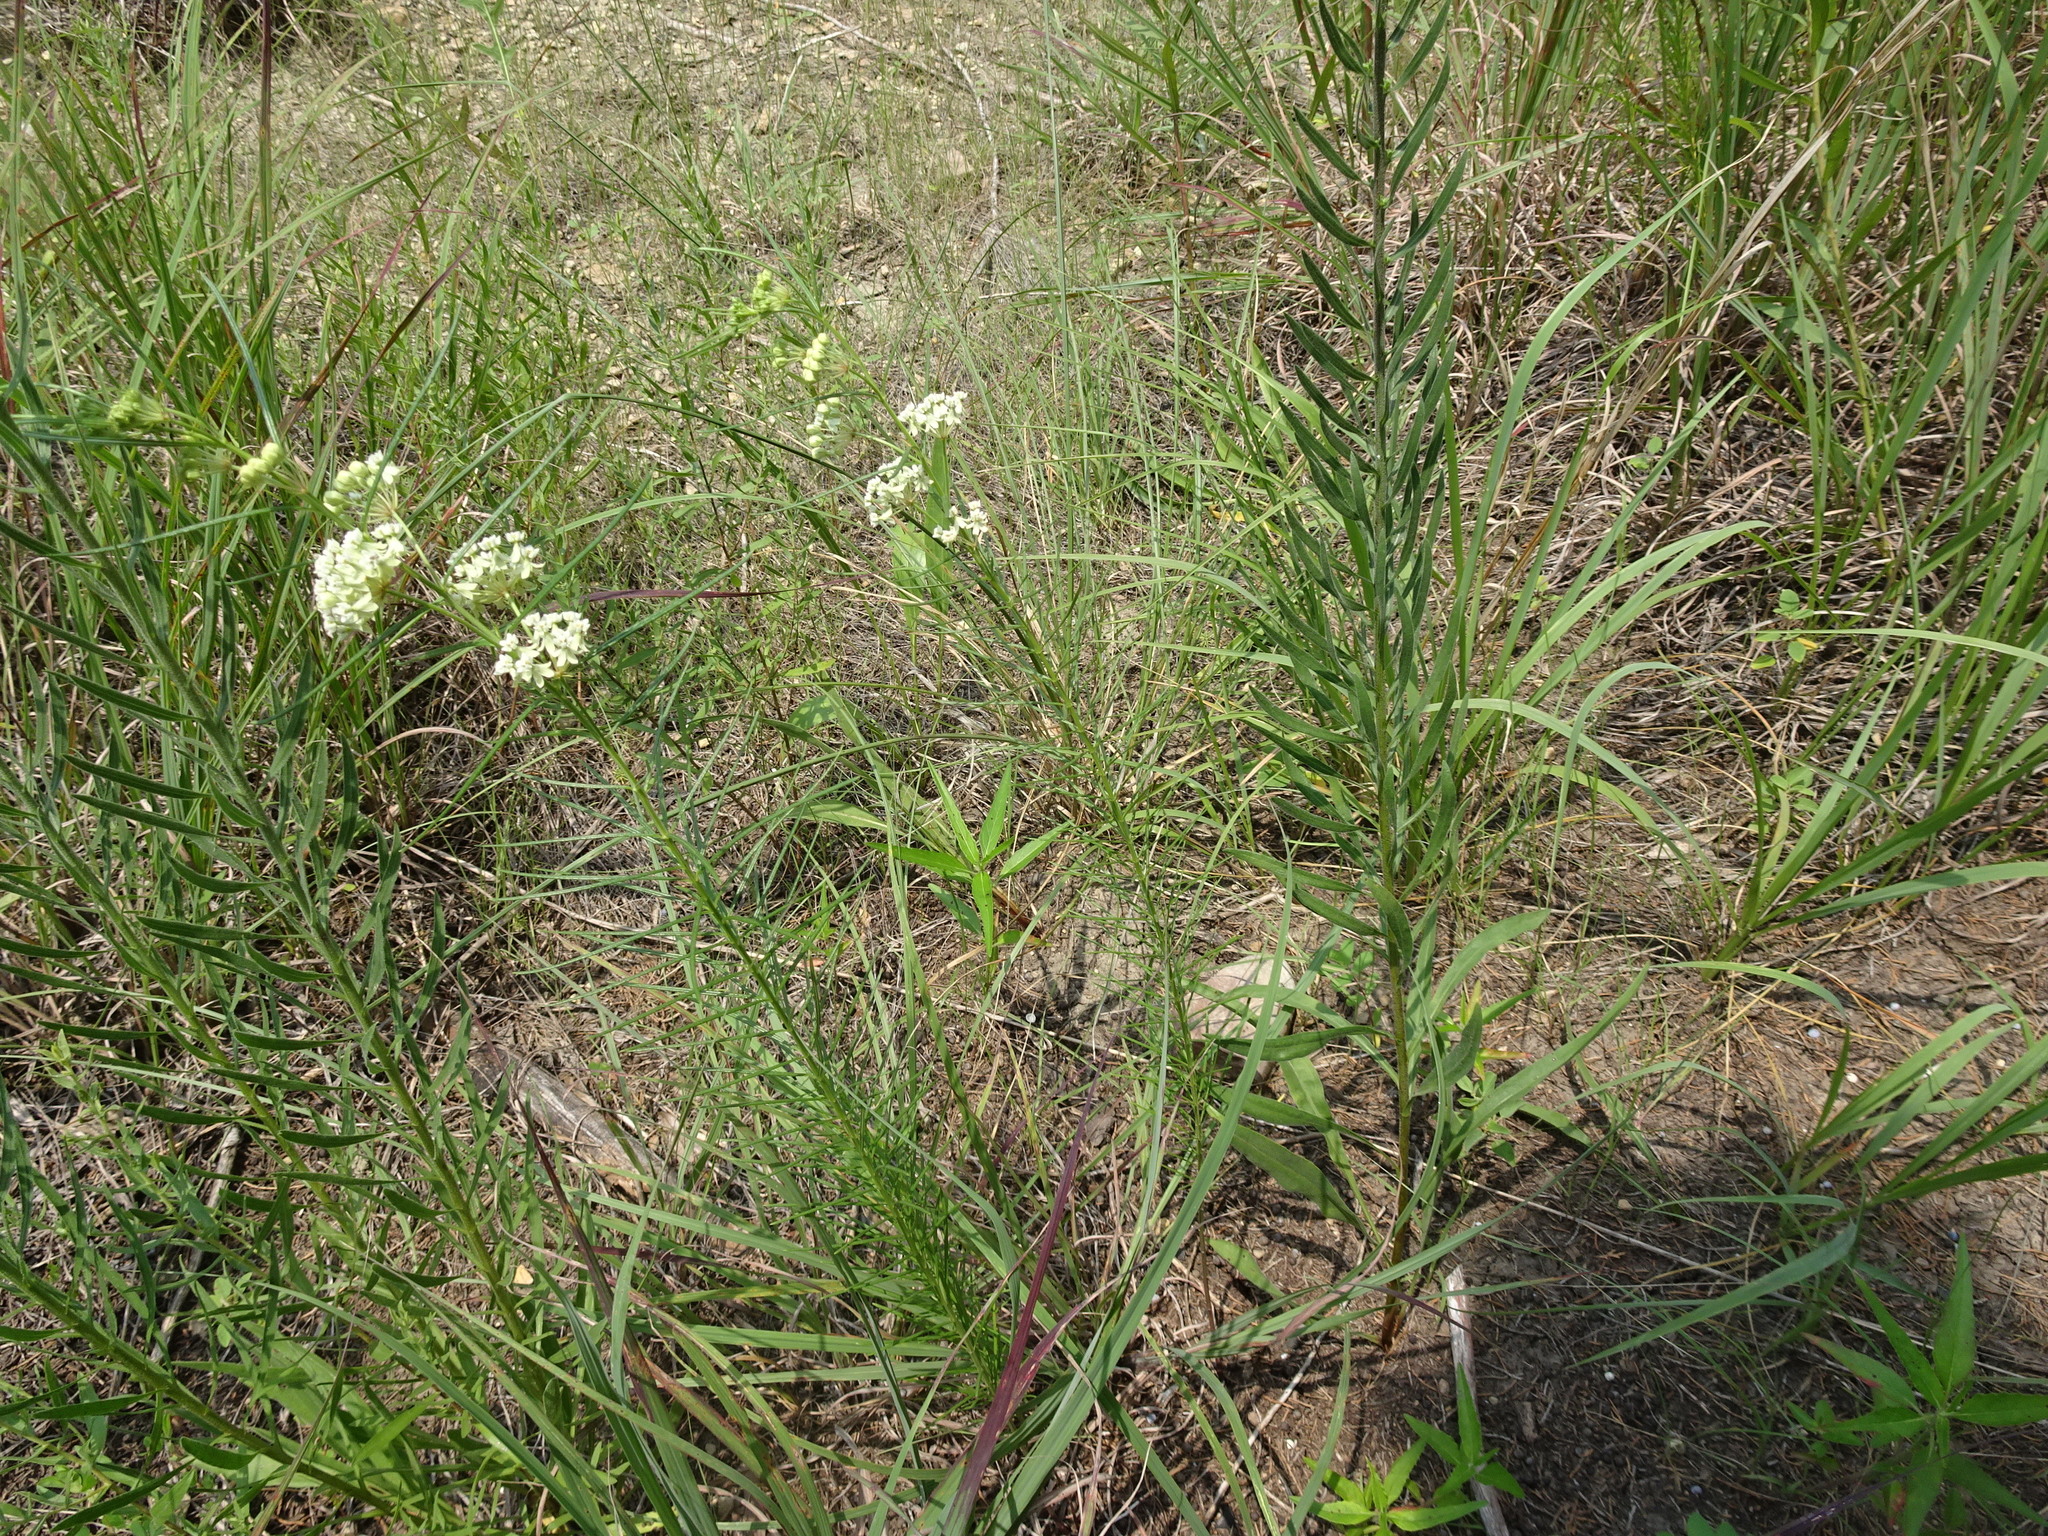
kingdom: Plantae
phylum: Tracheophyta
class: Magnoliopsida
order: Gentianales
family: Apocynaceae
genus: Asclepias
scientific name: Asclepias stenophylla
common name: Narrow-leaf milkweed
